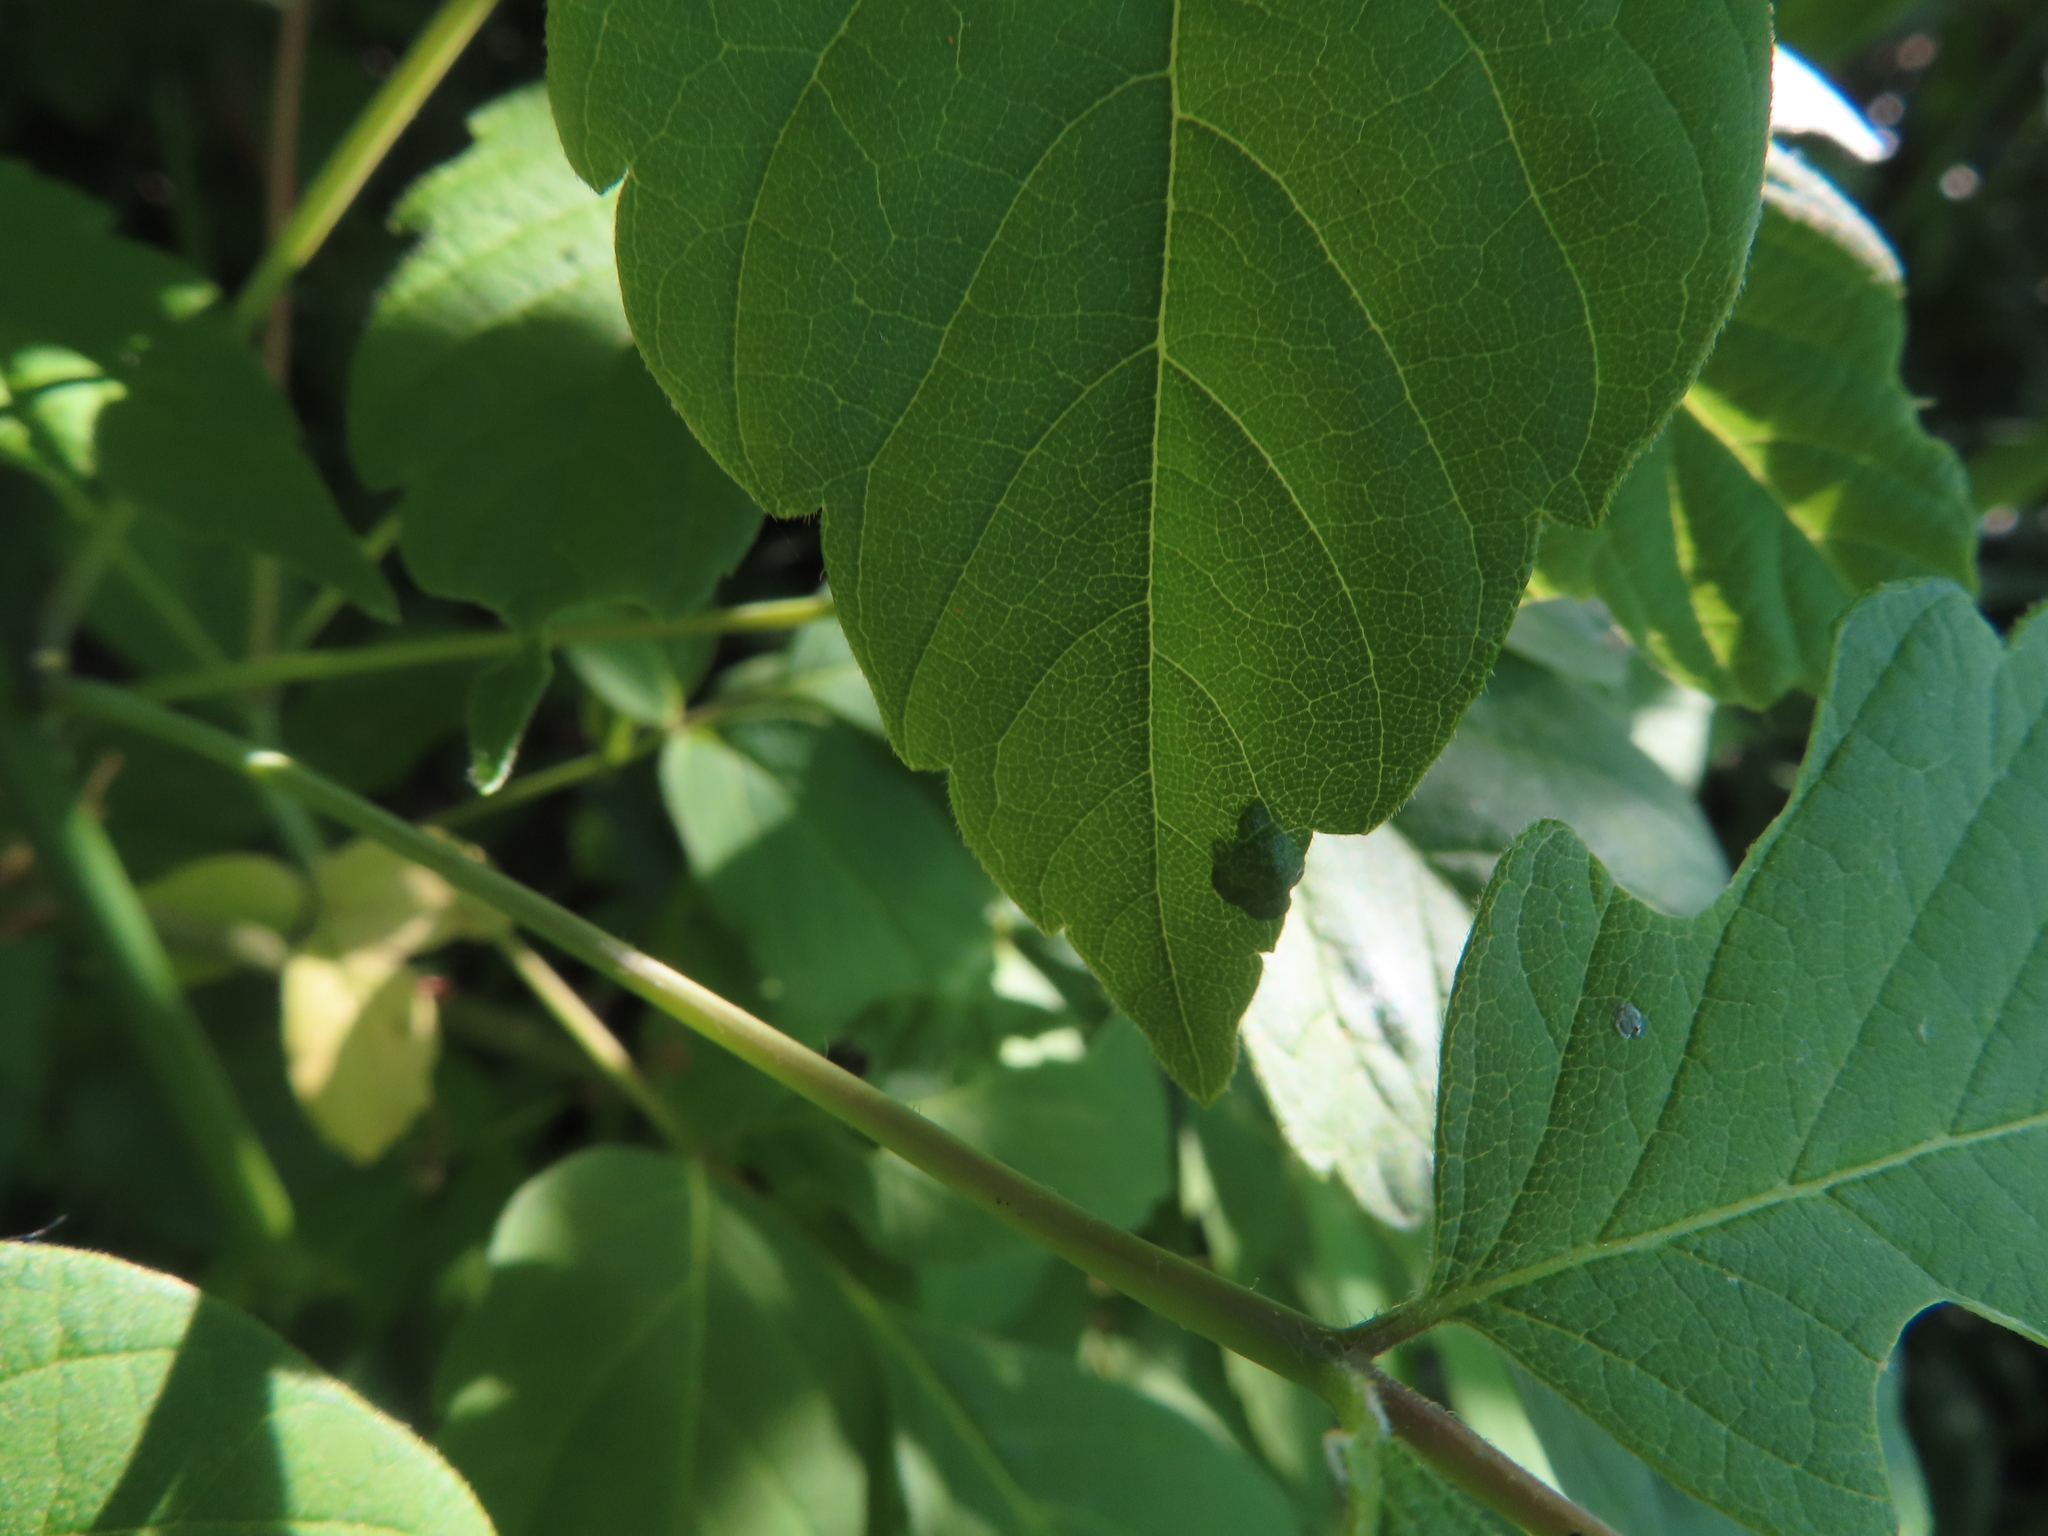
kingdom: Animalia
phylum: Arthropoda
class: Arachnida
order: Trombidiformes
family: Eriophyidae
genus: Aceria
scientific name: Aceria
